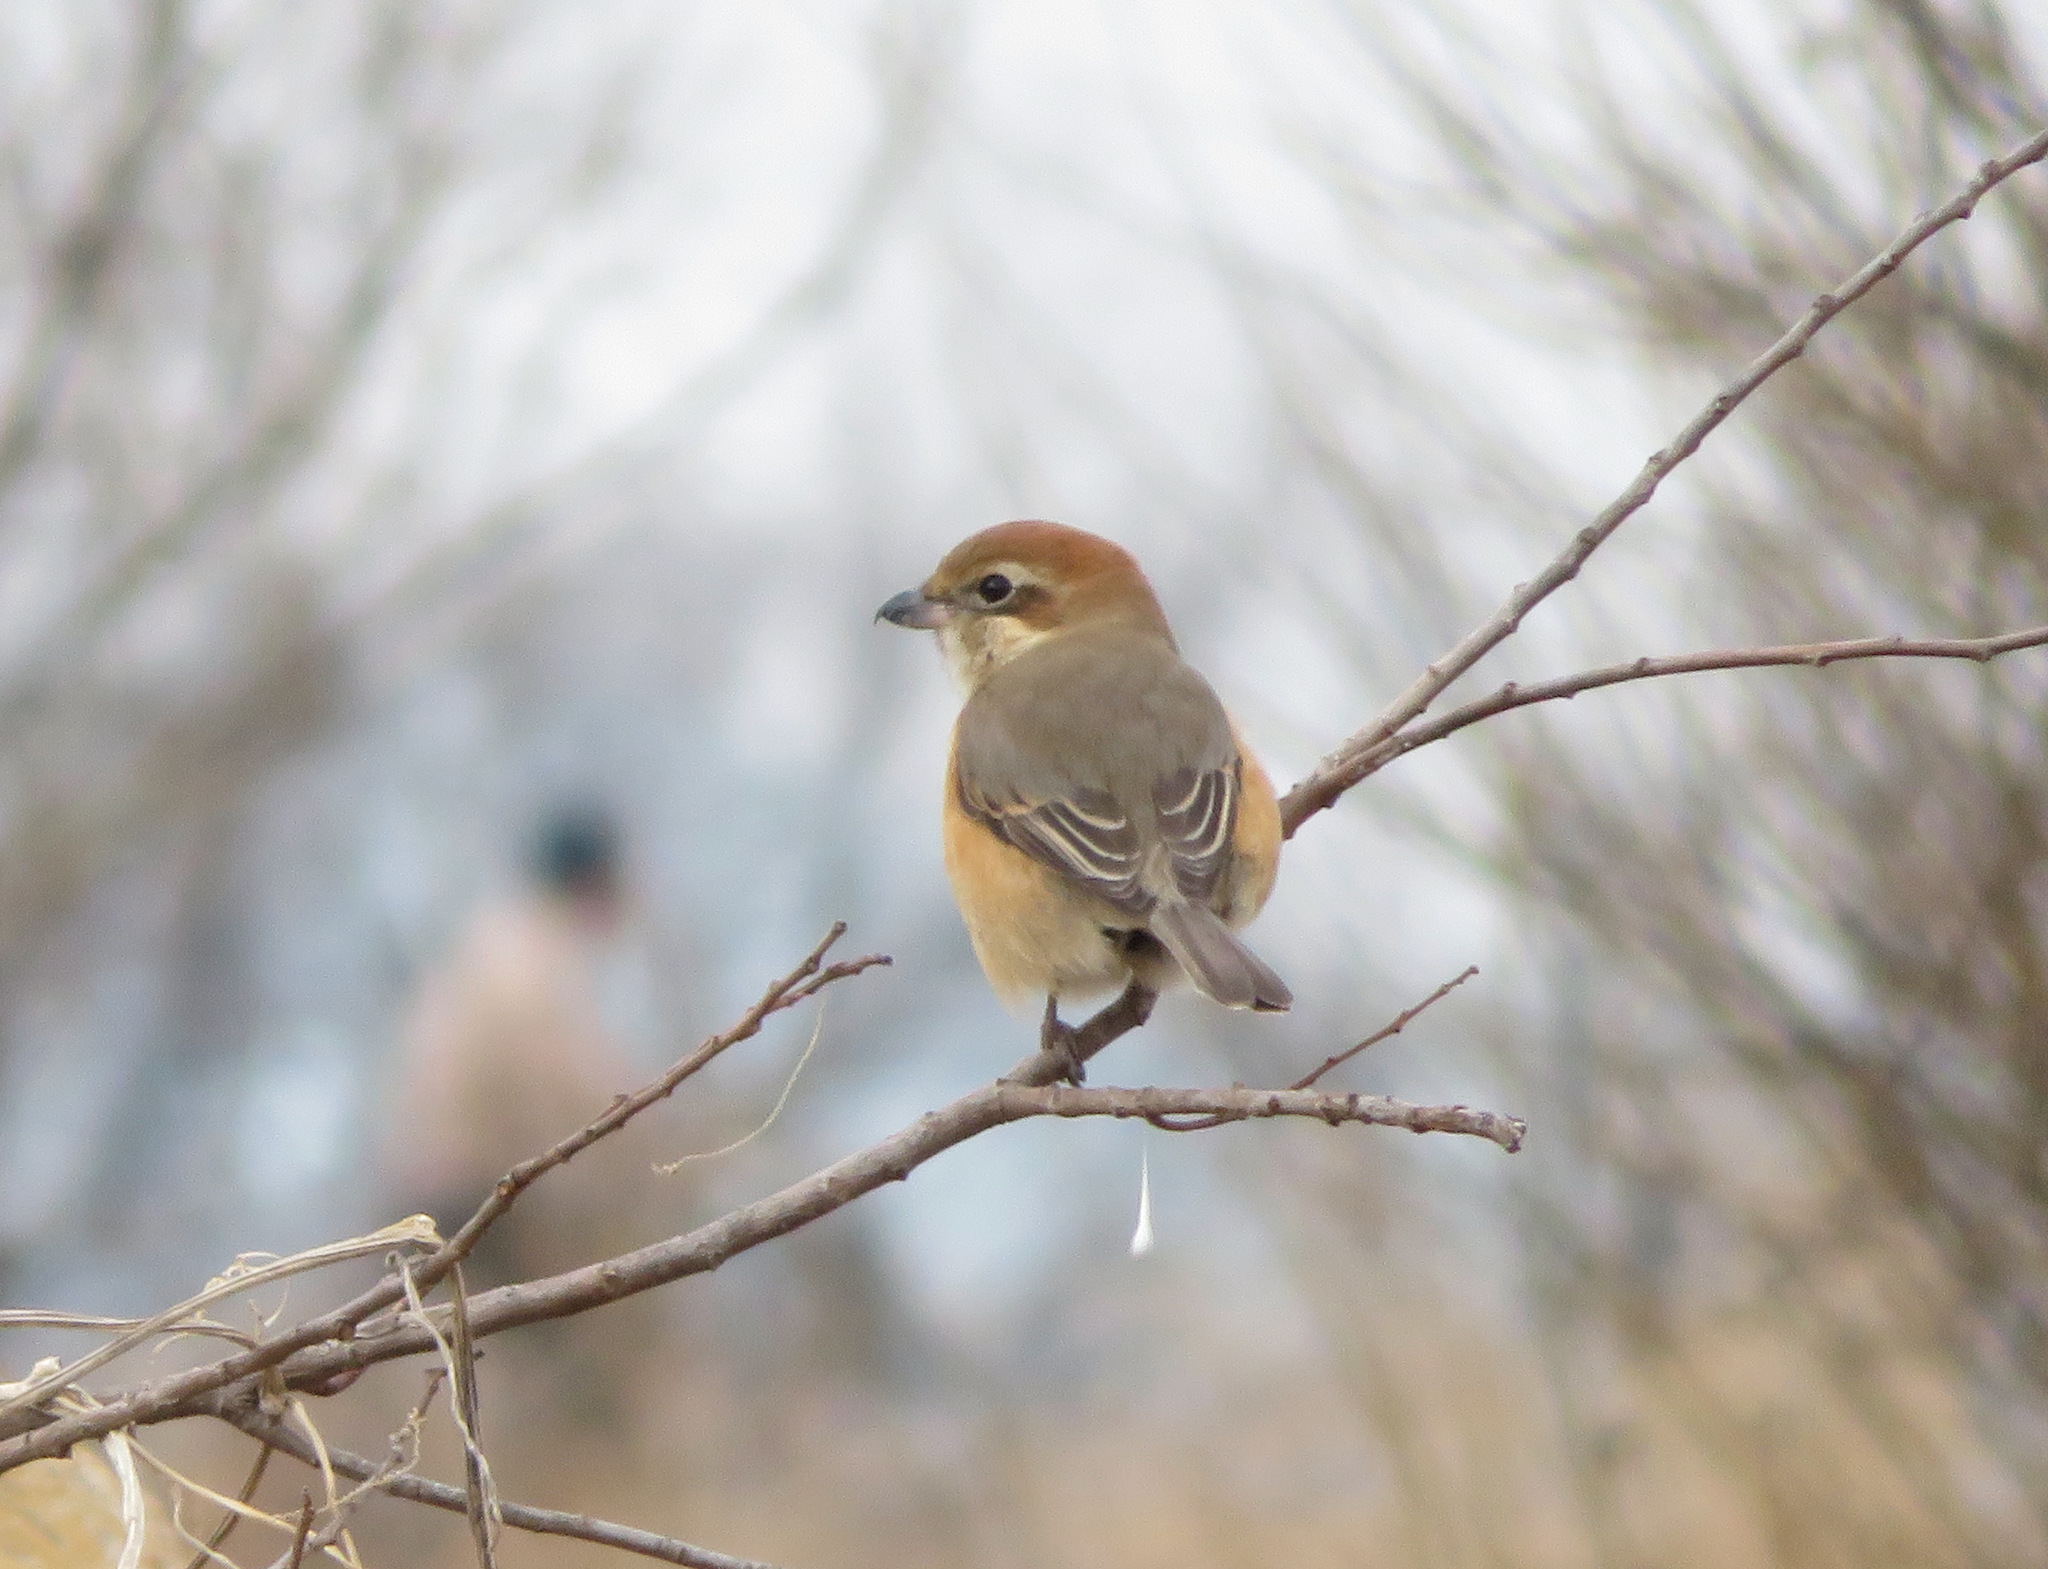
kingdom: Animalia
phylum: Chordata
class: Aves
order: Passeriformes
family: Laniidae
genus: Lanius
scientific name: Lanius bucephalus
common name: Bull-headed shrike
